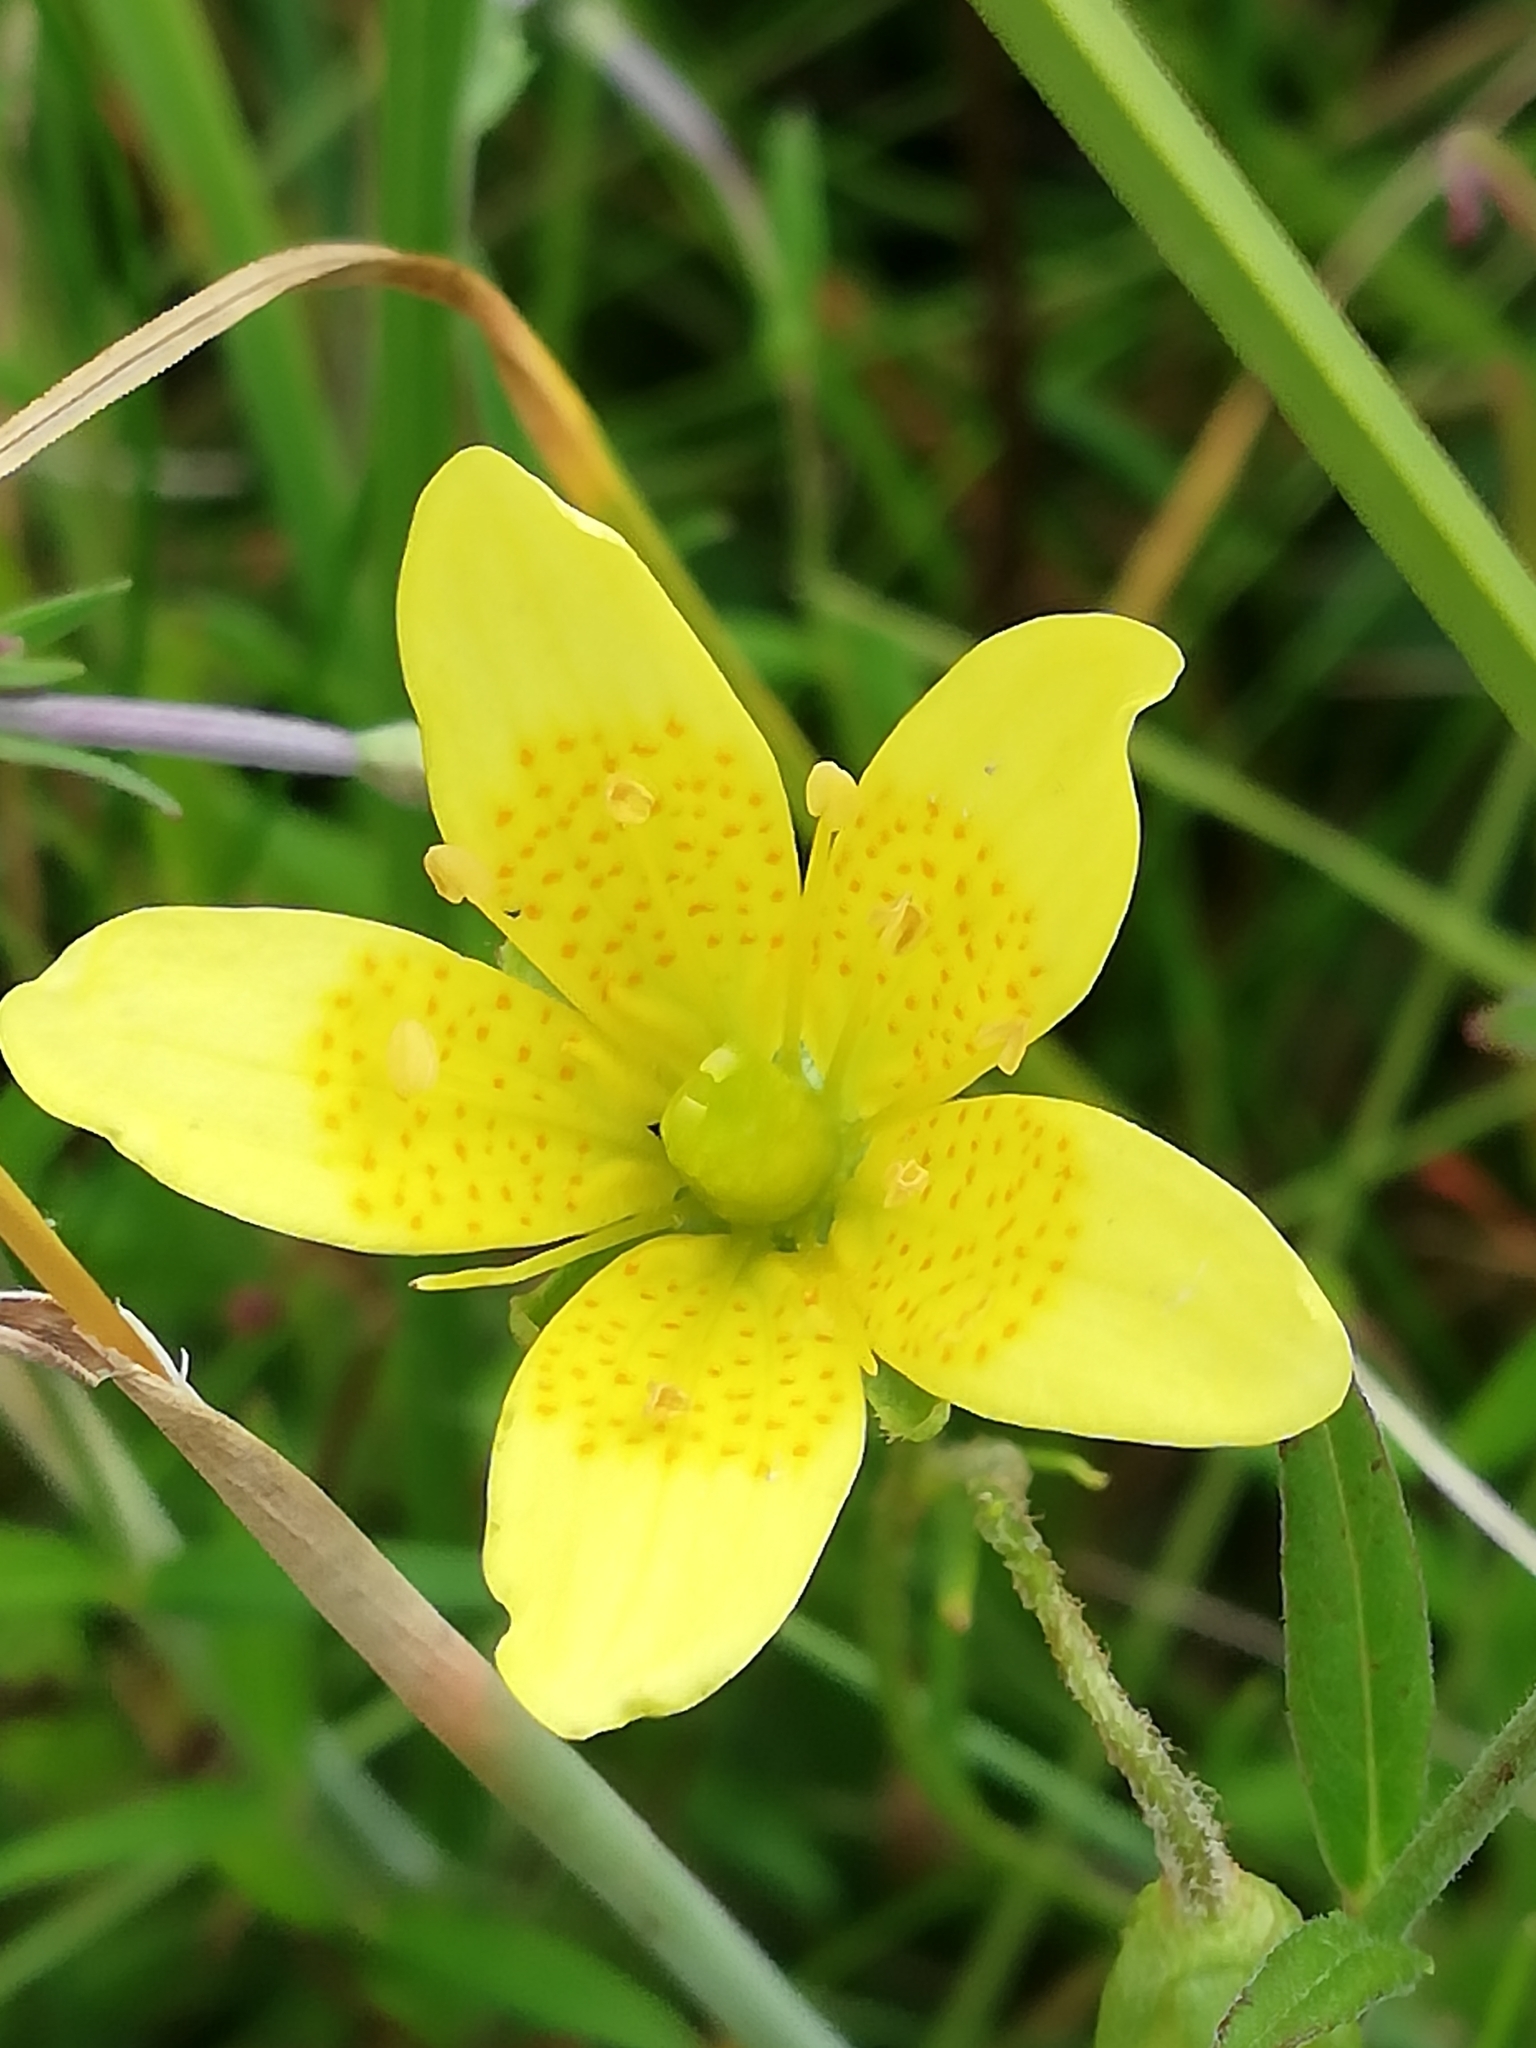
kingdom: Plantae
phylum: Tracheophyta
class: Magnoliopsida
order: Saxifragales
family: Saxifragaceae
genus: Saxifraga
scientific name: Saxifraga hirculus
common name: Yellow marsh saxifrage
